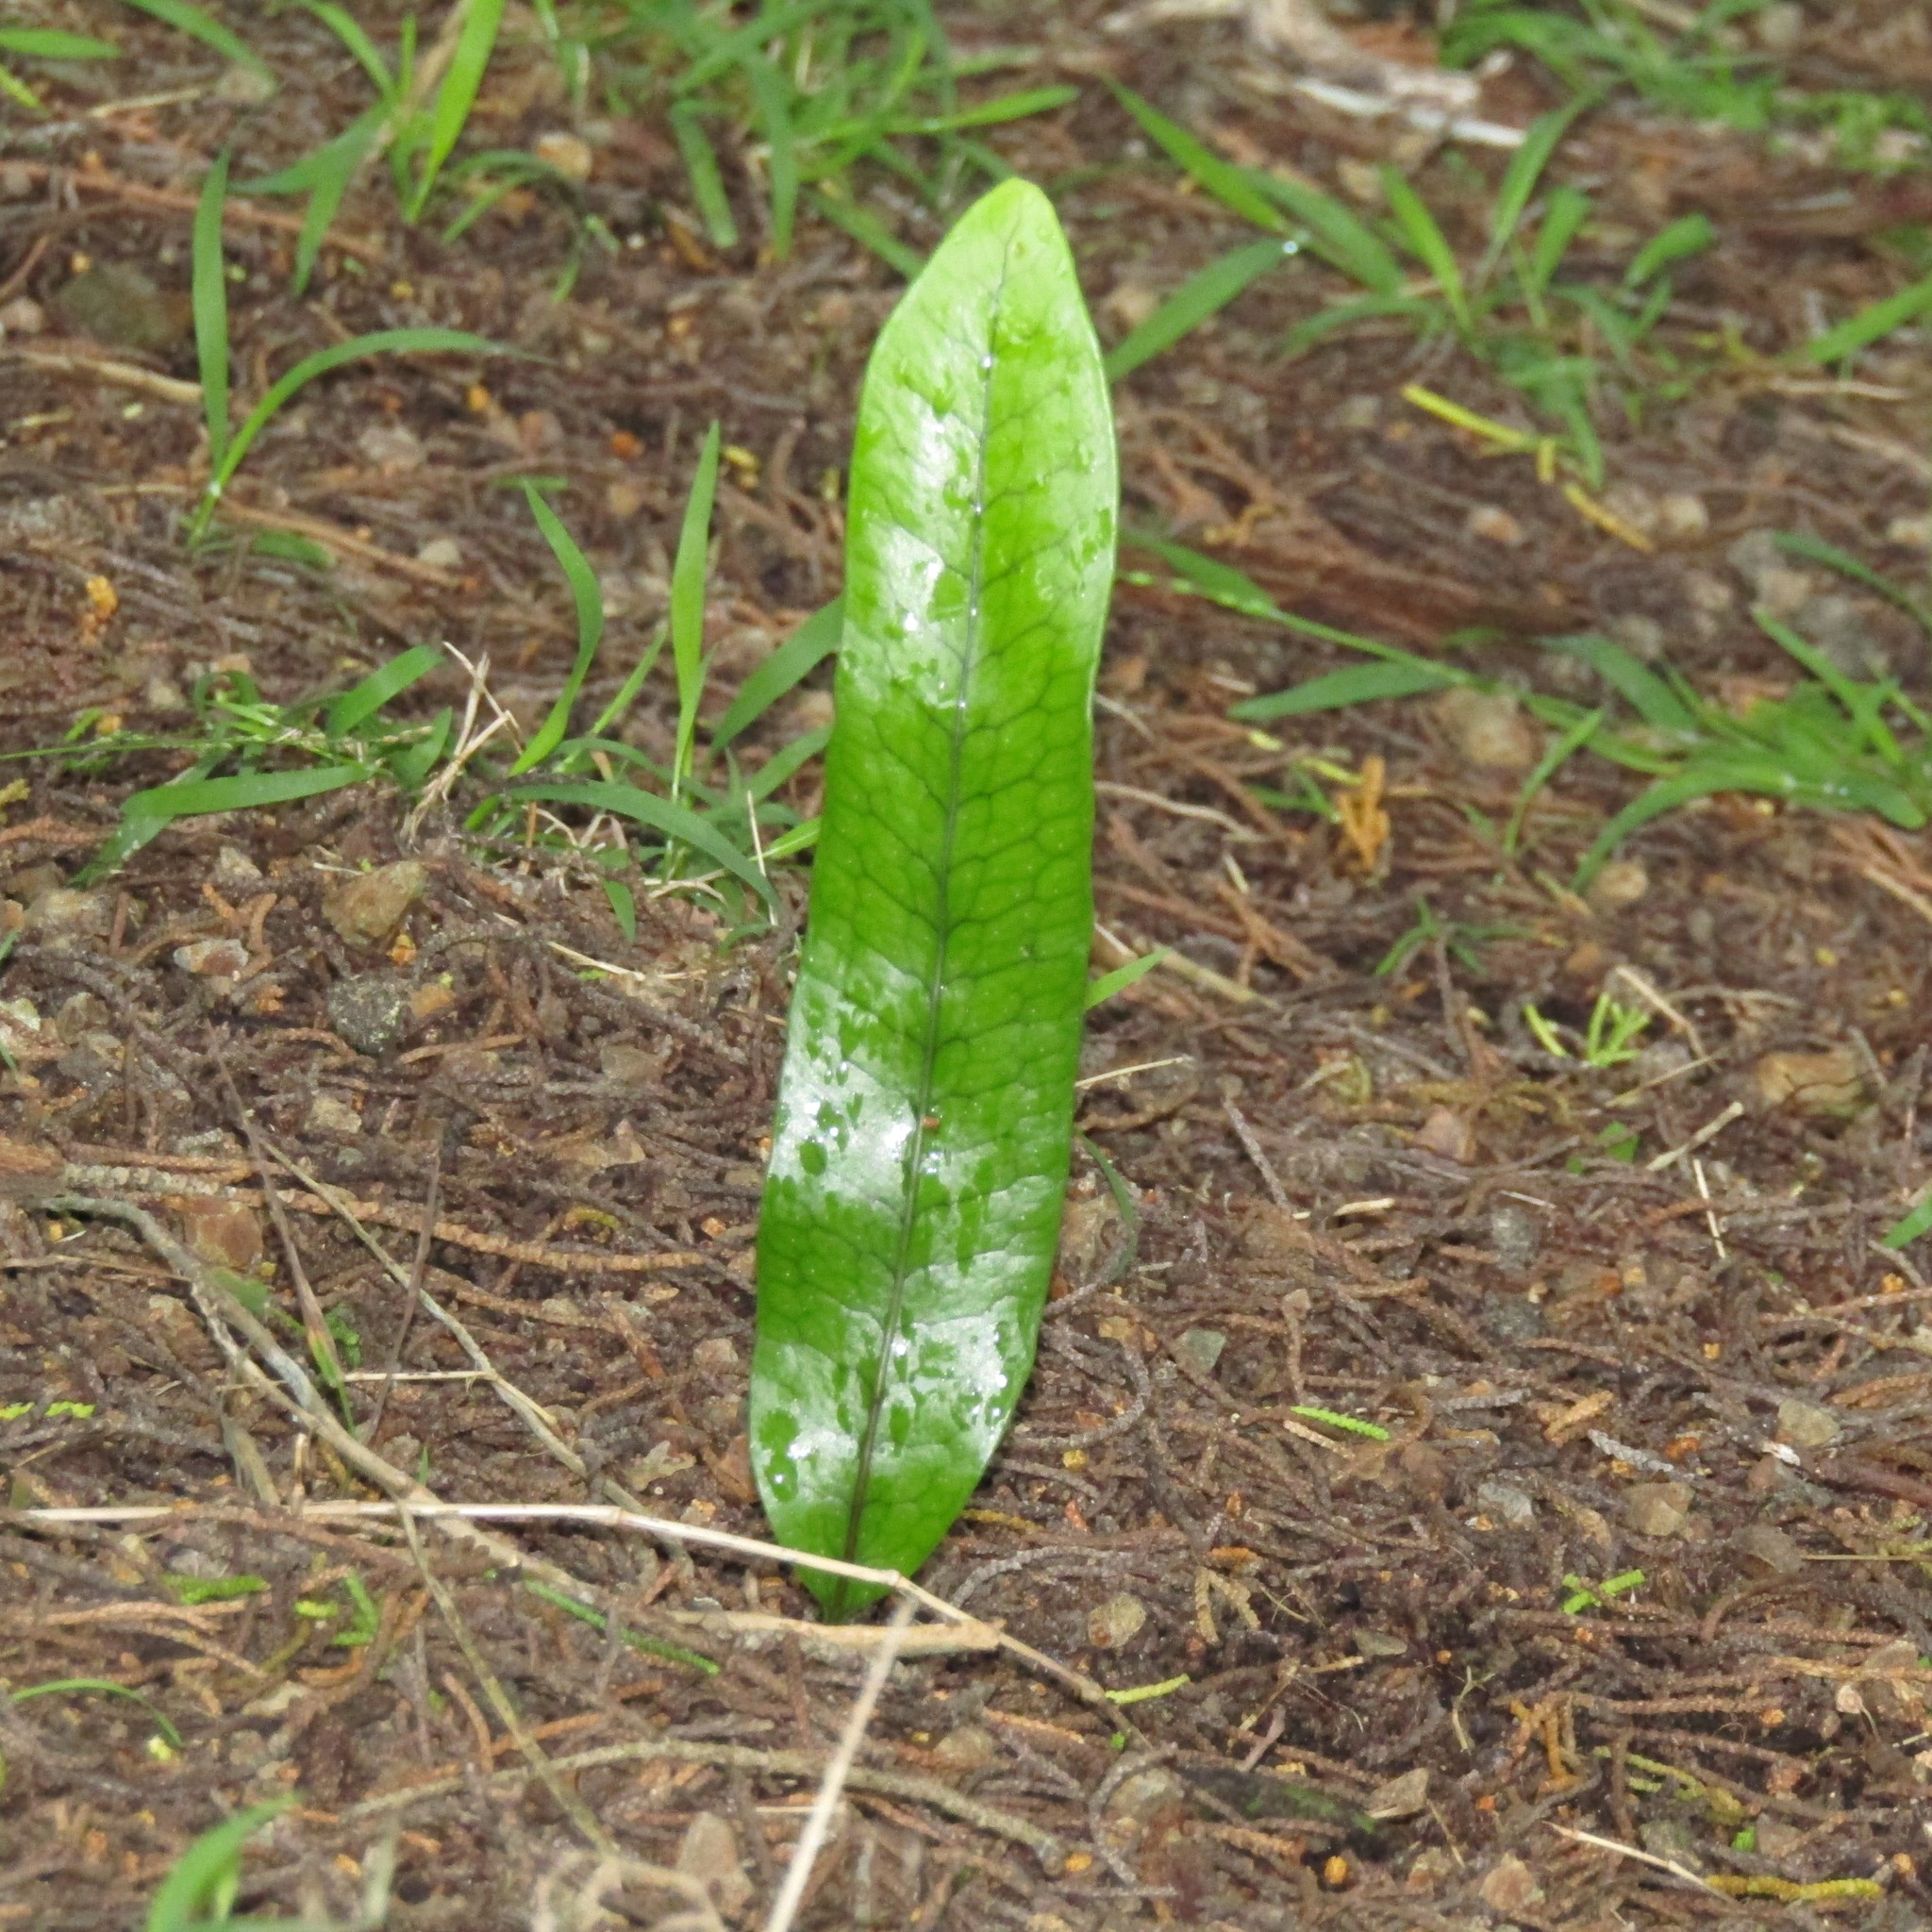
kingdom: Plantae
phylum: Tracheophyta
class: Polypodiopsida
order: Polypodiales
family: Polypodiaceae
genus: Lecanopteris
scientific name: Lecanopteris pustulata
